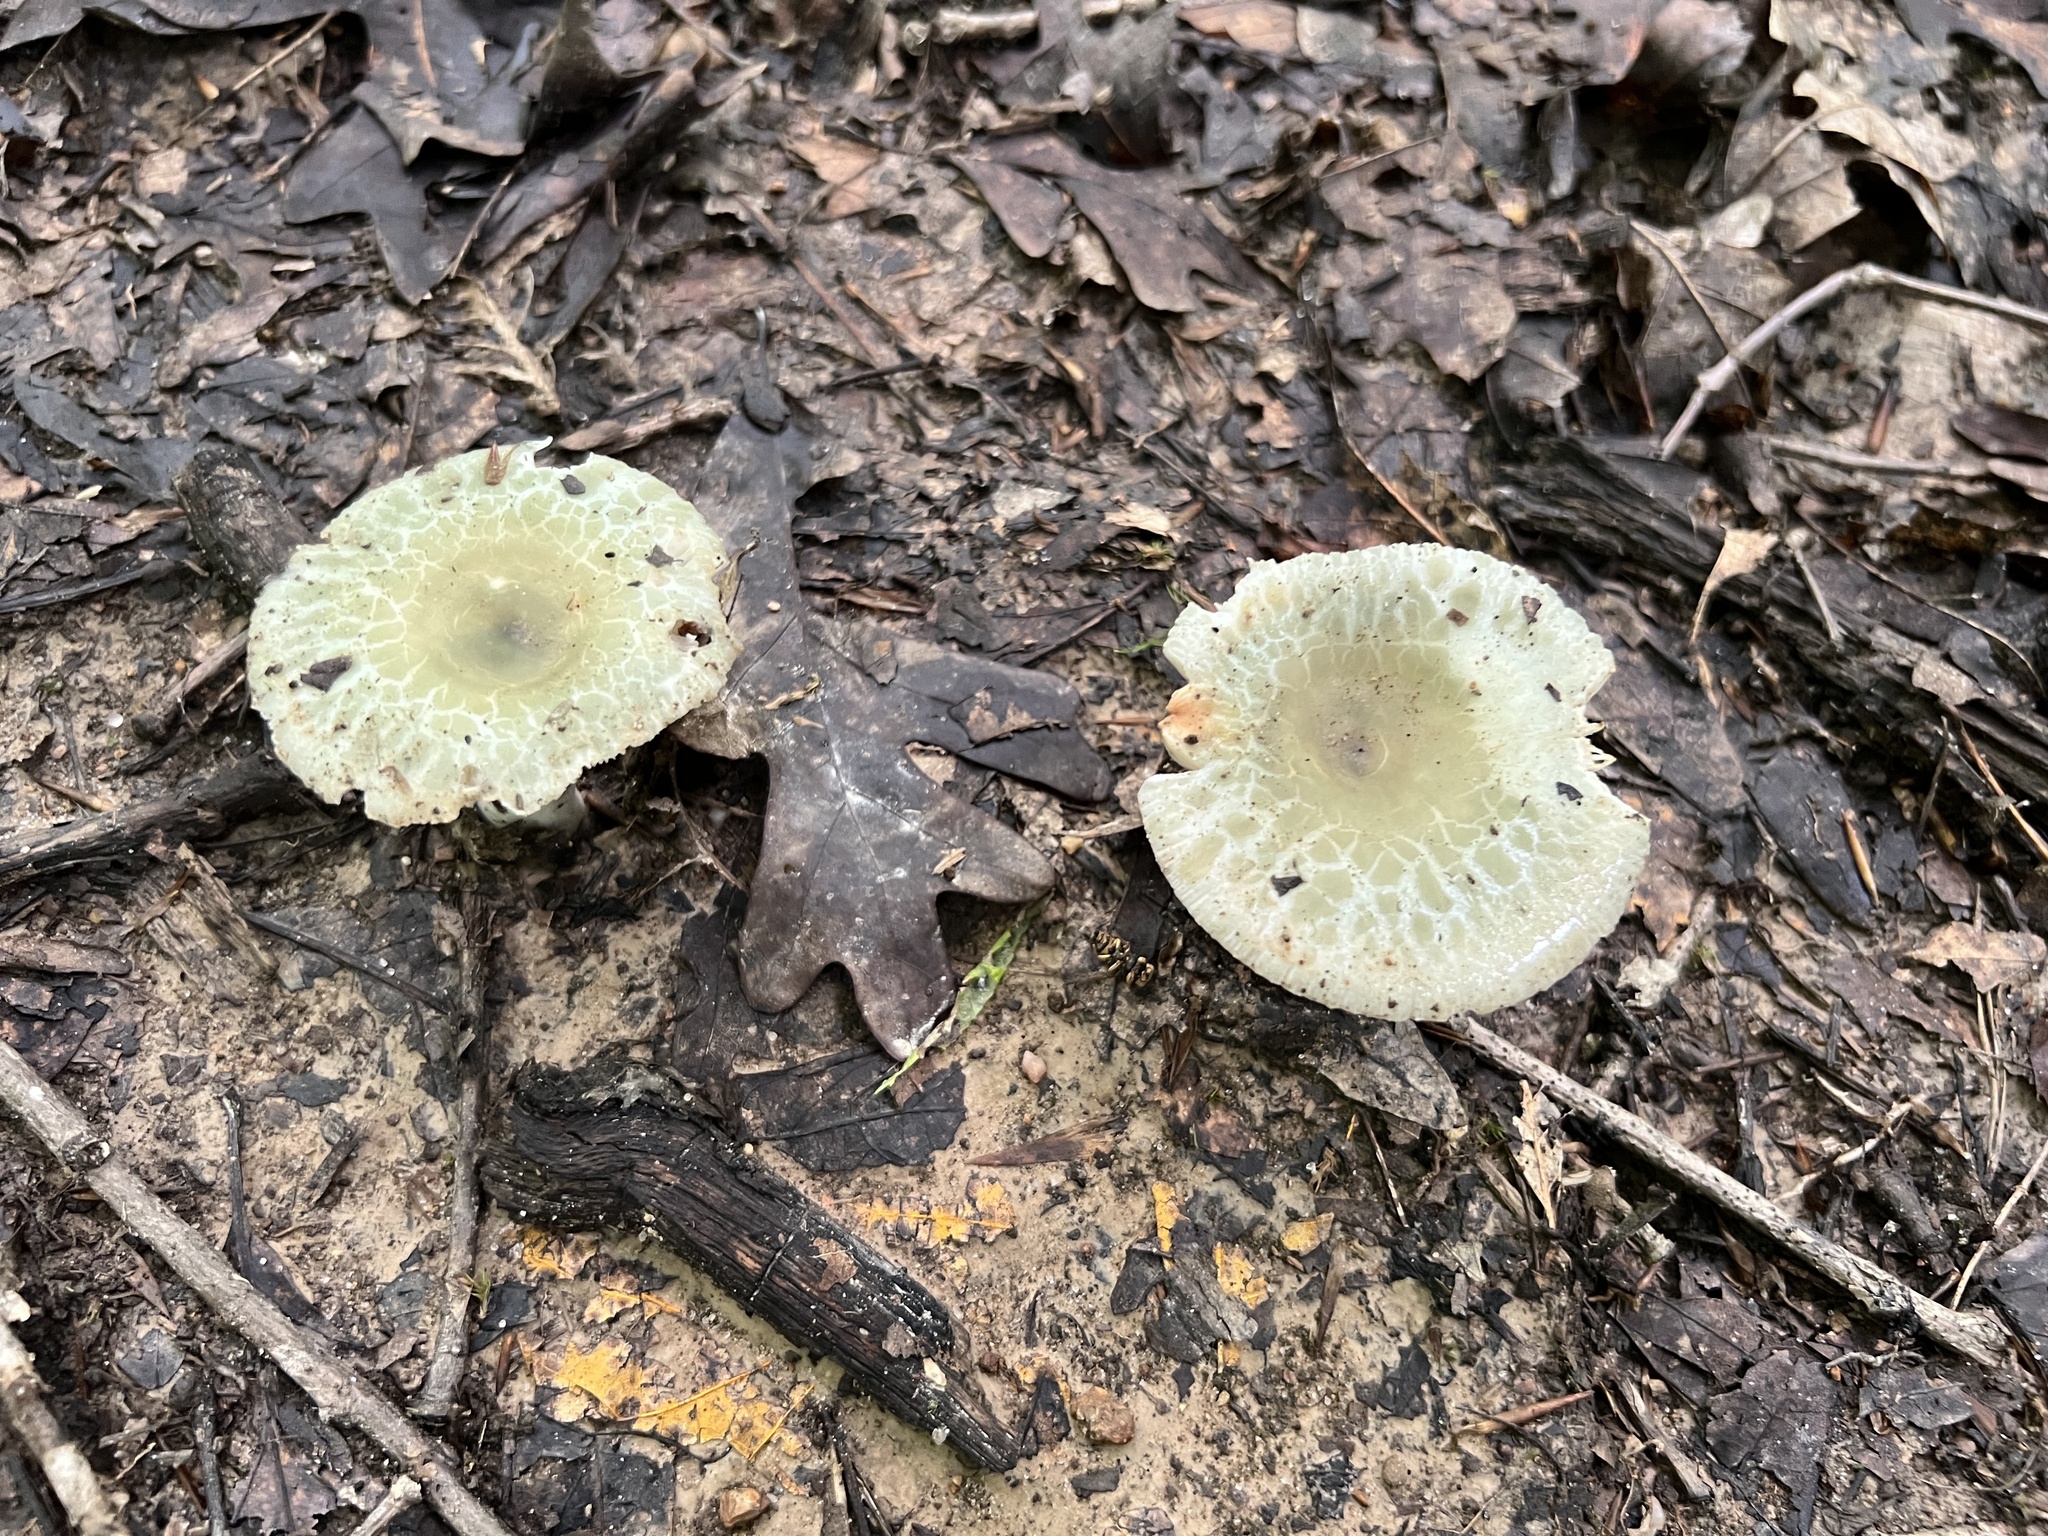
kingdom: Fungi
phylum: Basidiomycota
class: Agaricomycetes
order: Russulales
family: Russulaceae
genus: Russula
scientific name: Russula parvovirescens
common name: Blue-green cracking russula
